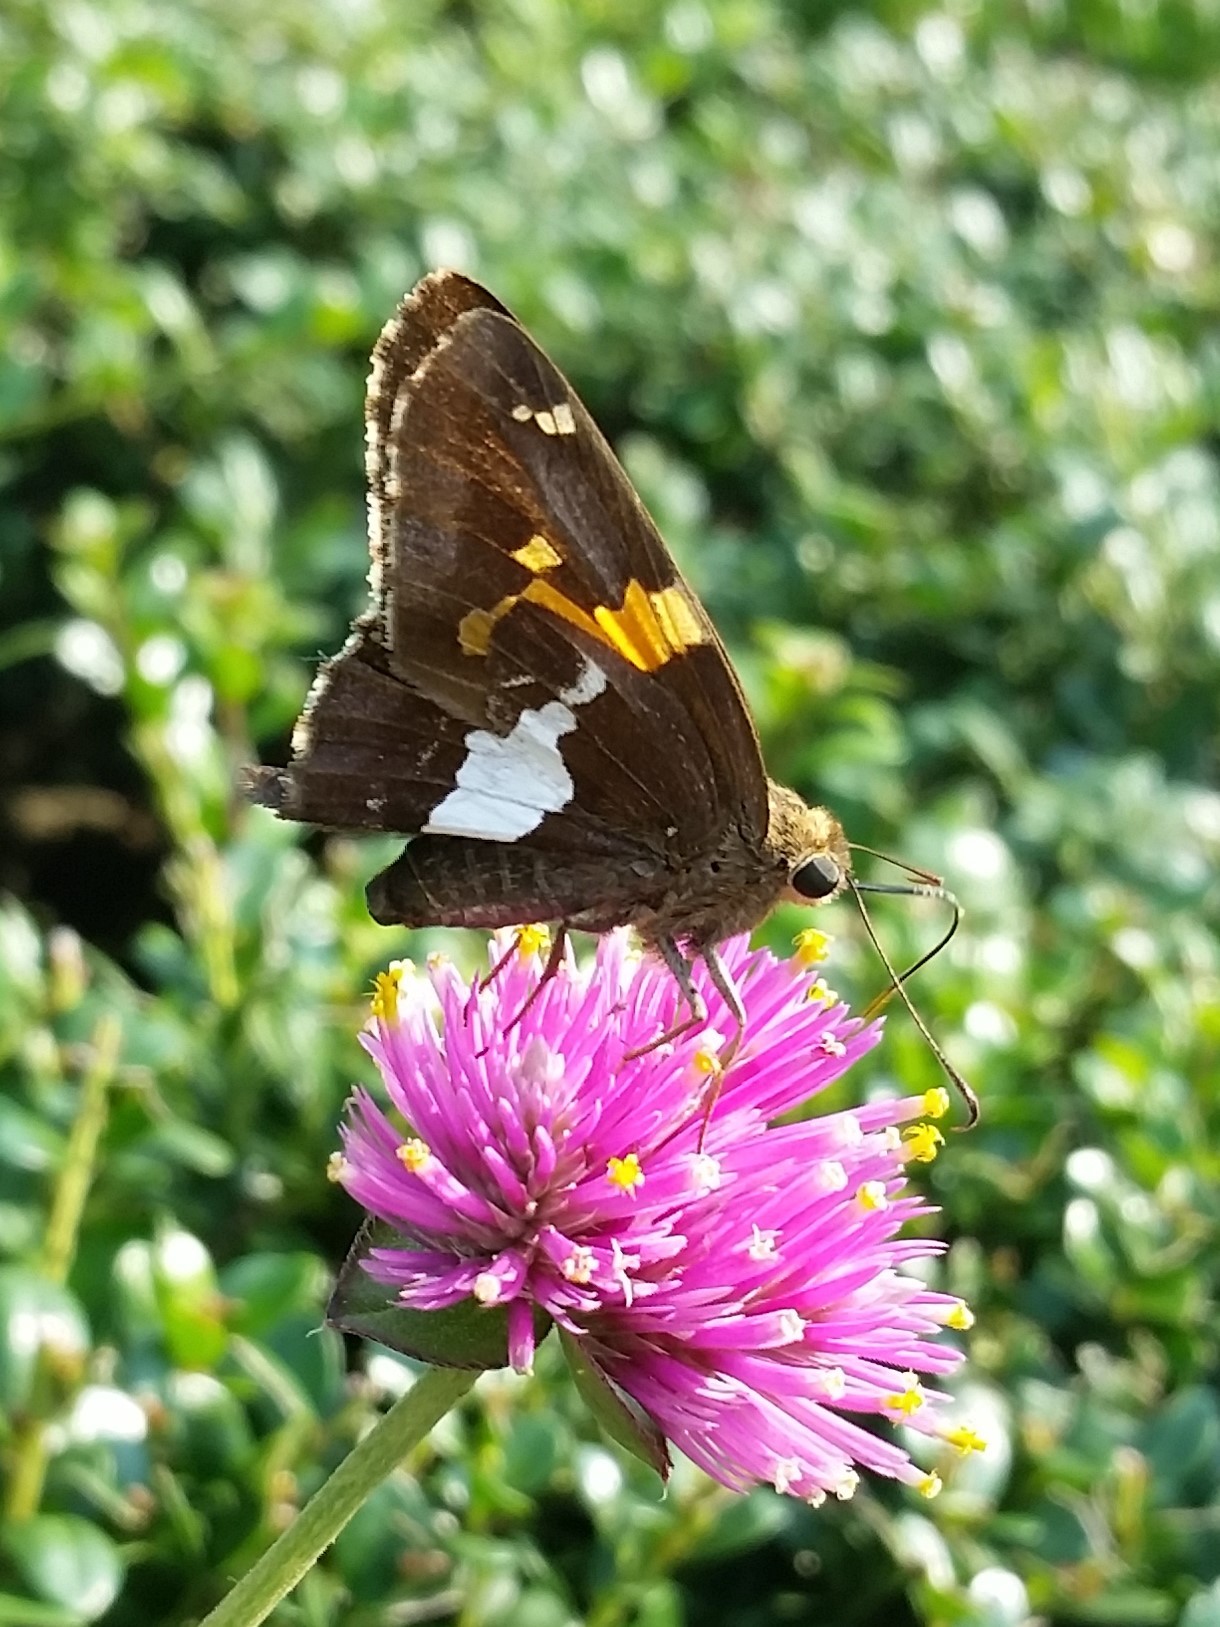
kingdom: Animalia
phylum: Arthropoda
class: Insecta
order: Lepidoptera
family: Hesperiidae
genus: Epargyreus
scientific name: Epargyreus clarus
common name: Silver-spotted skipper
